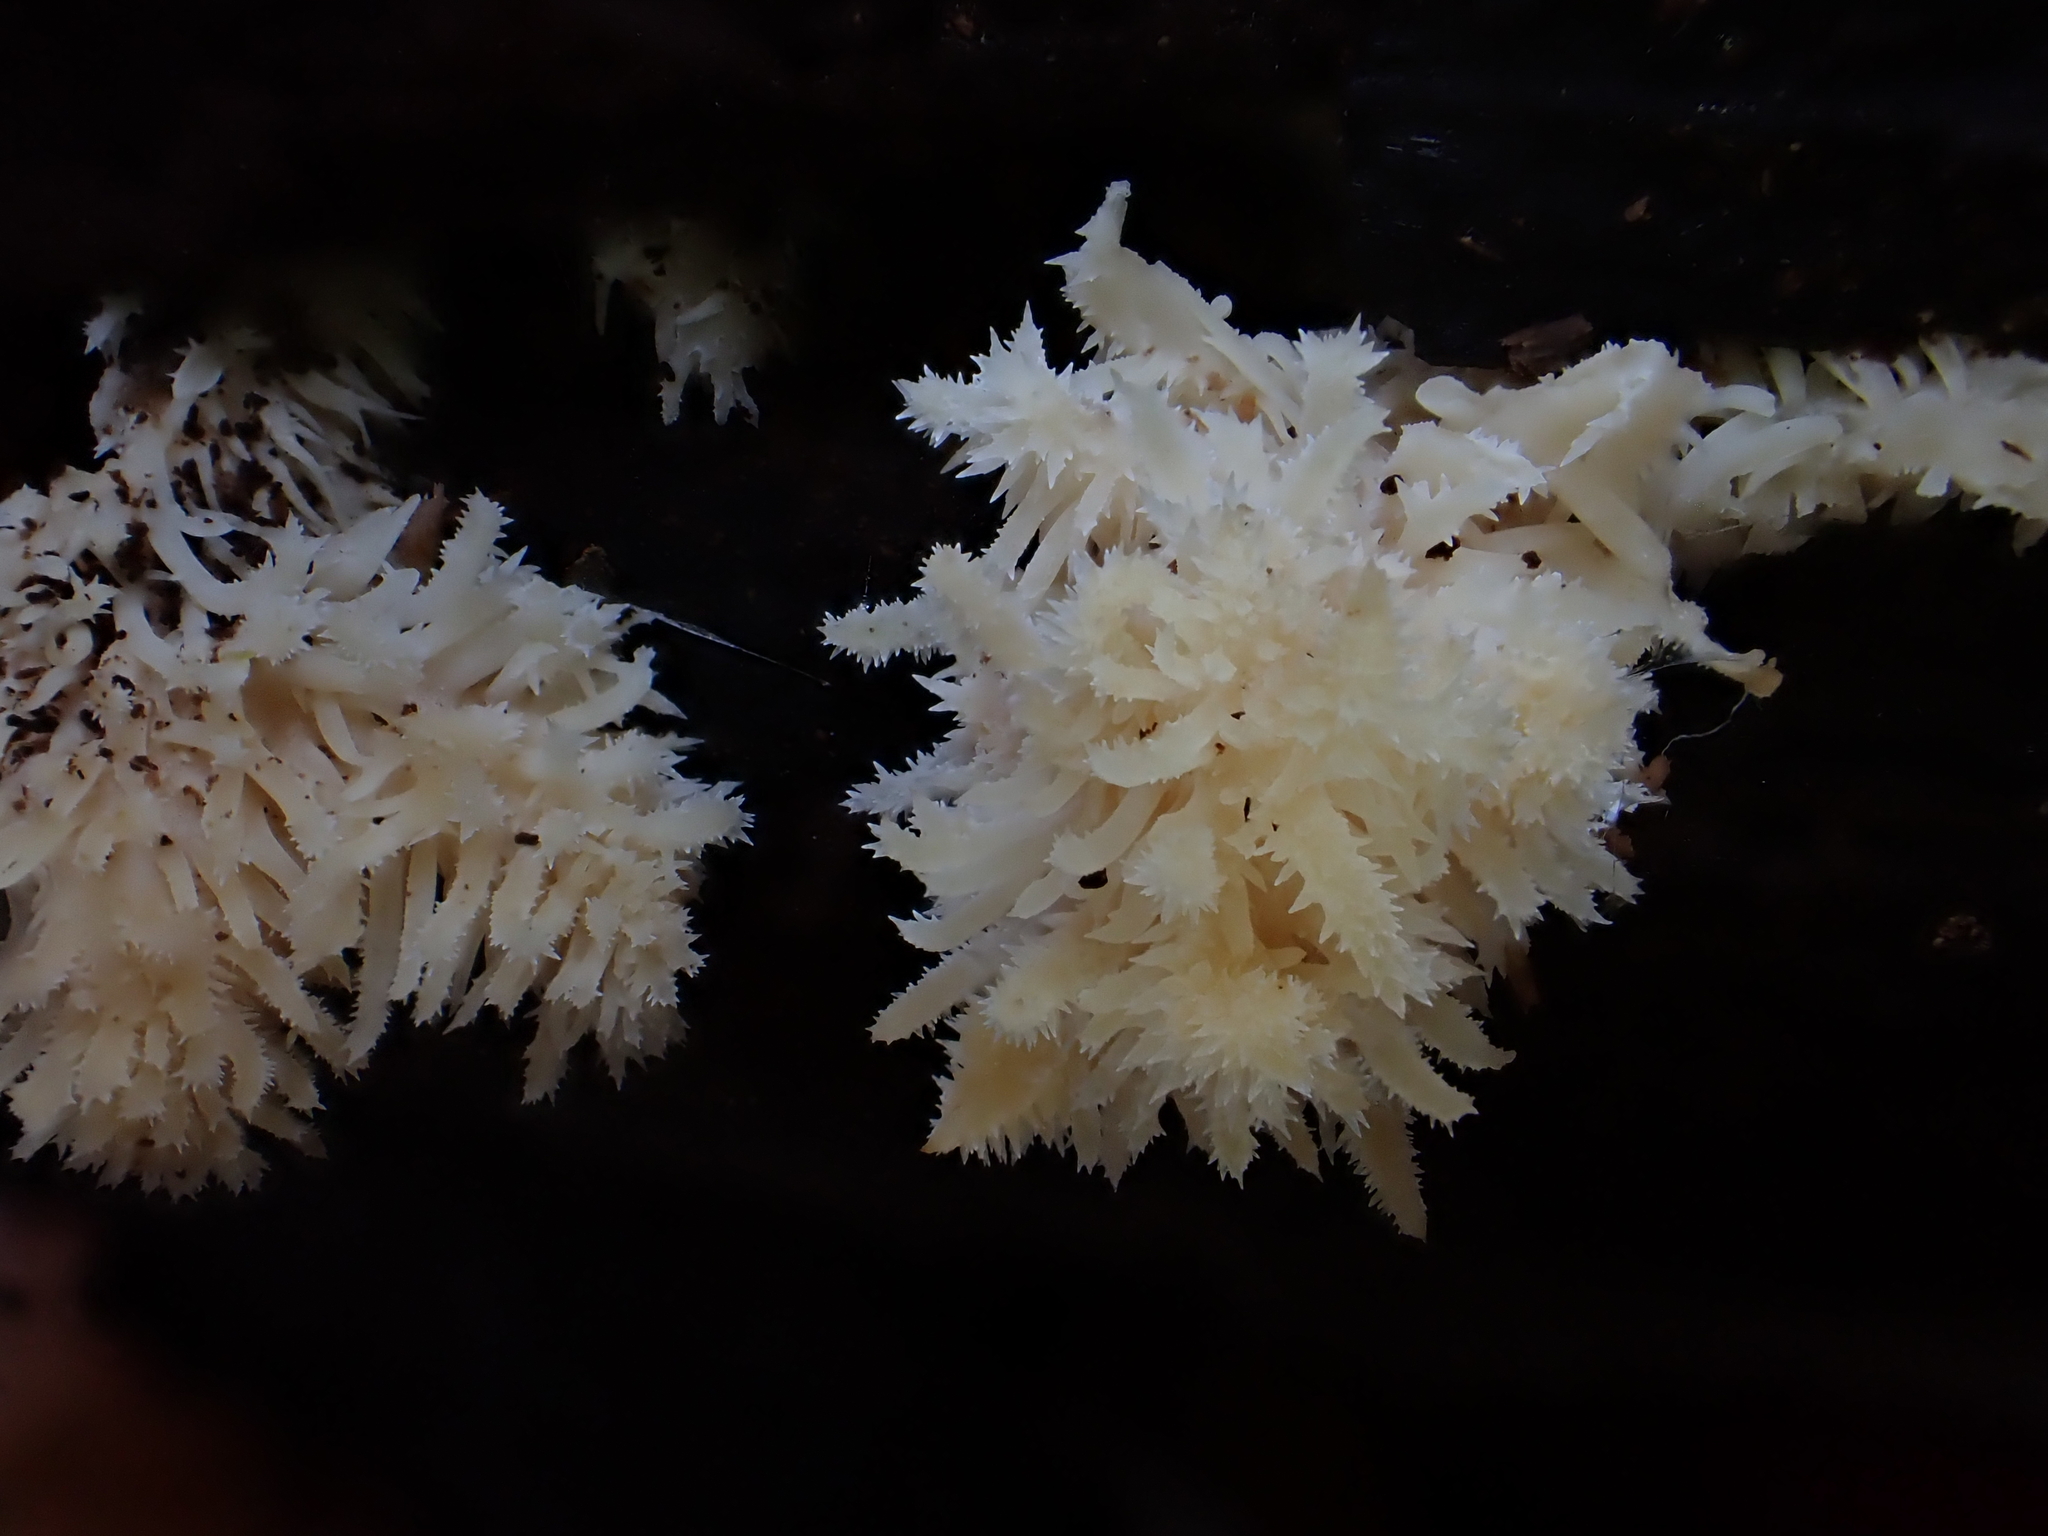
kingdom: Fungi
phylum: Basidiomycota
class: Agaricomycetes
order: Russulales
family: Hericiaceae
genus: Hericium
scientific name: Hericium coralloides
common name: Coral tooth
